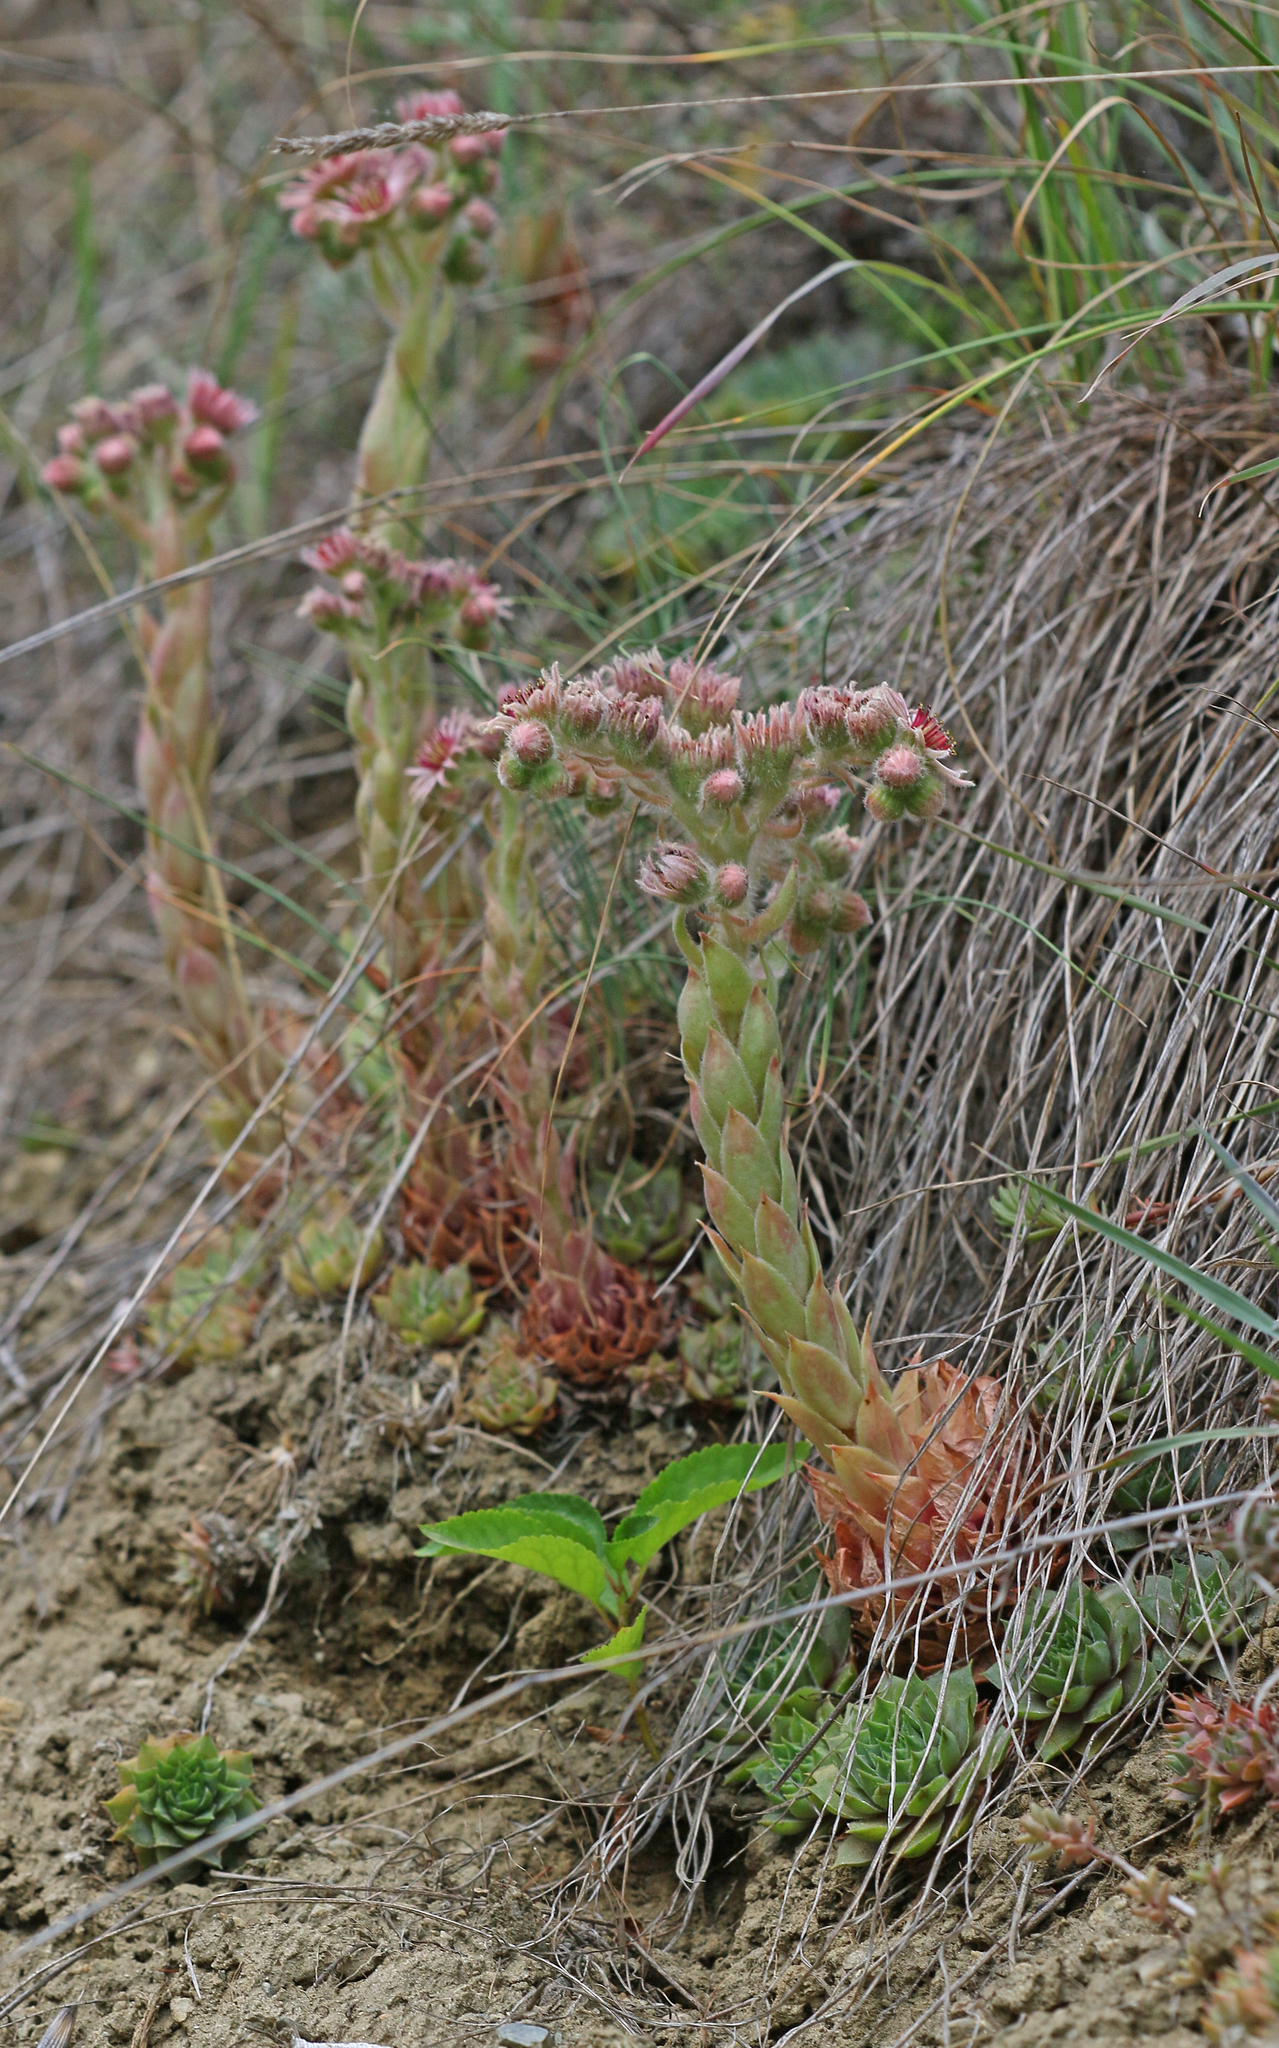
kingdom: Plantae
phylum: Tracheophyta
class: Magnoliopsida
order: Saxifragales
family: Crassulaceae
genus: Sempervivum
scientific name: Sempervivum tectorum
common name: House-leek
